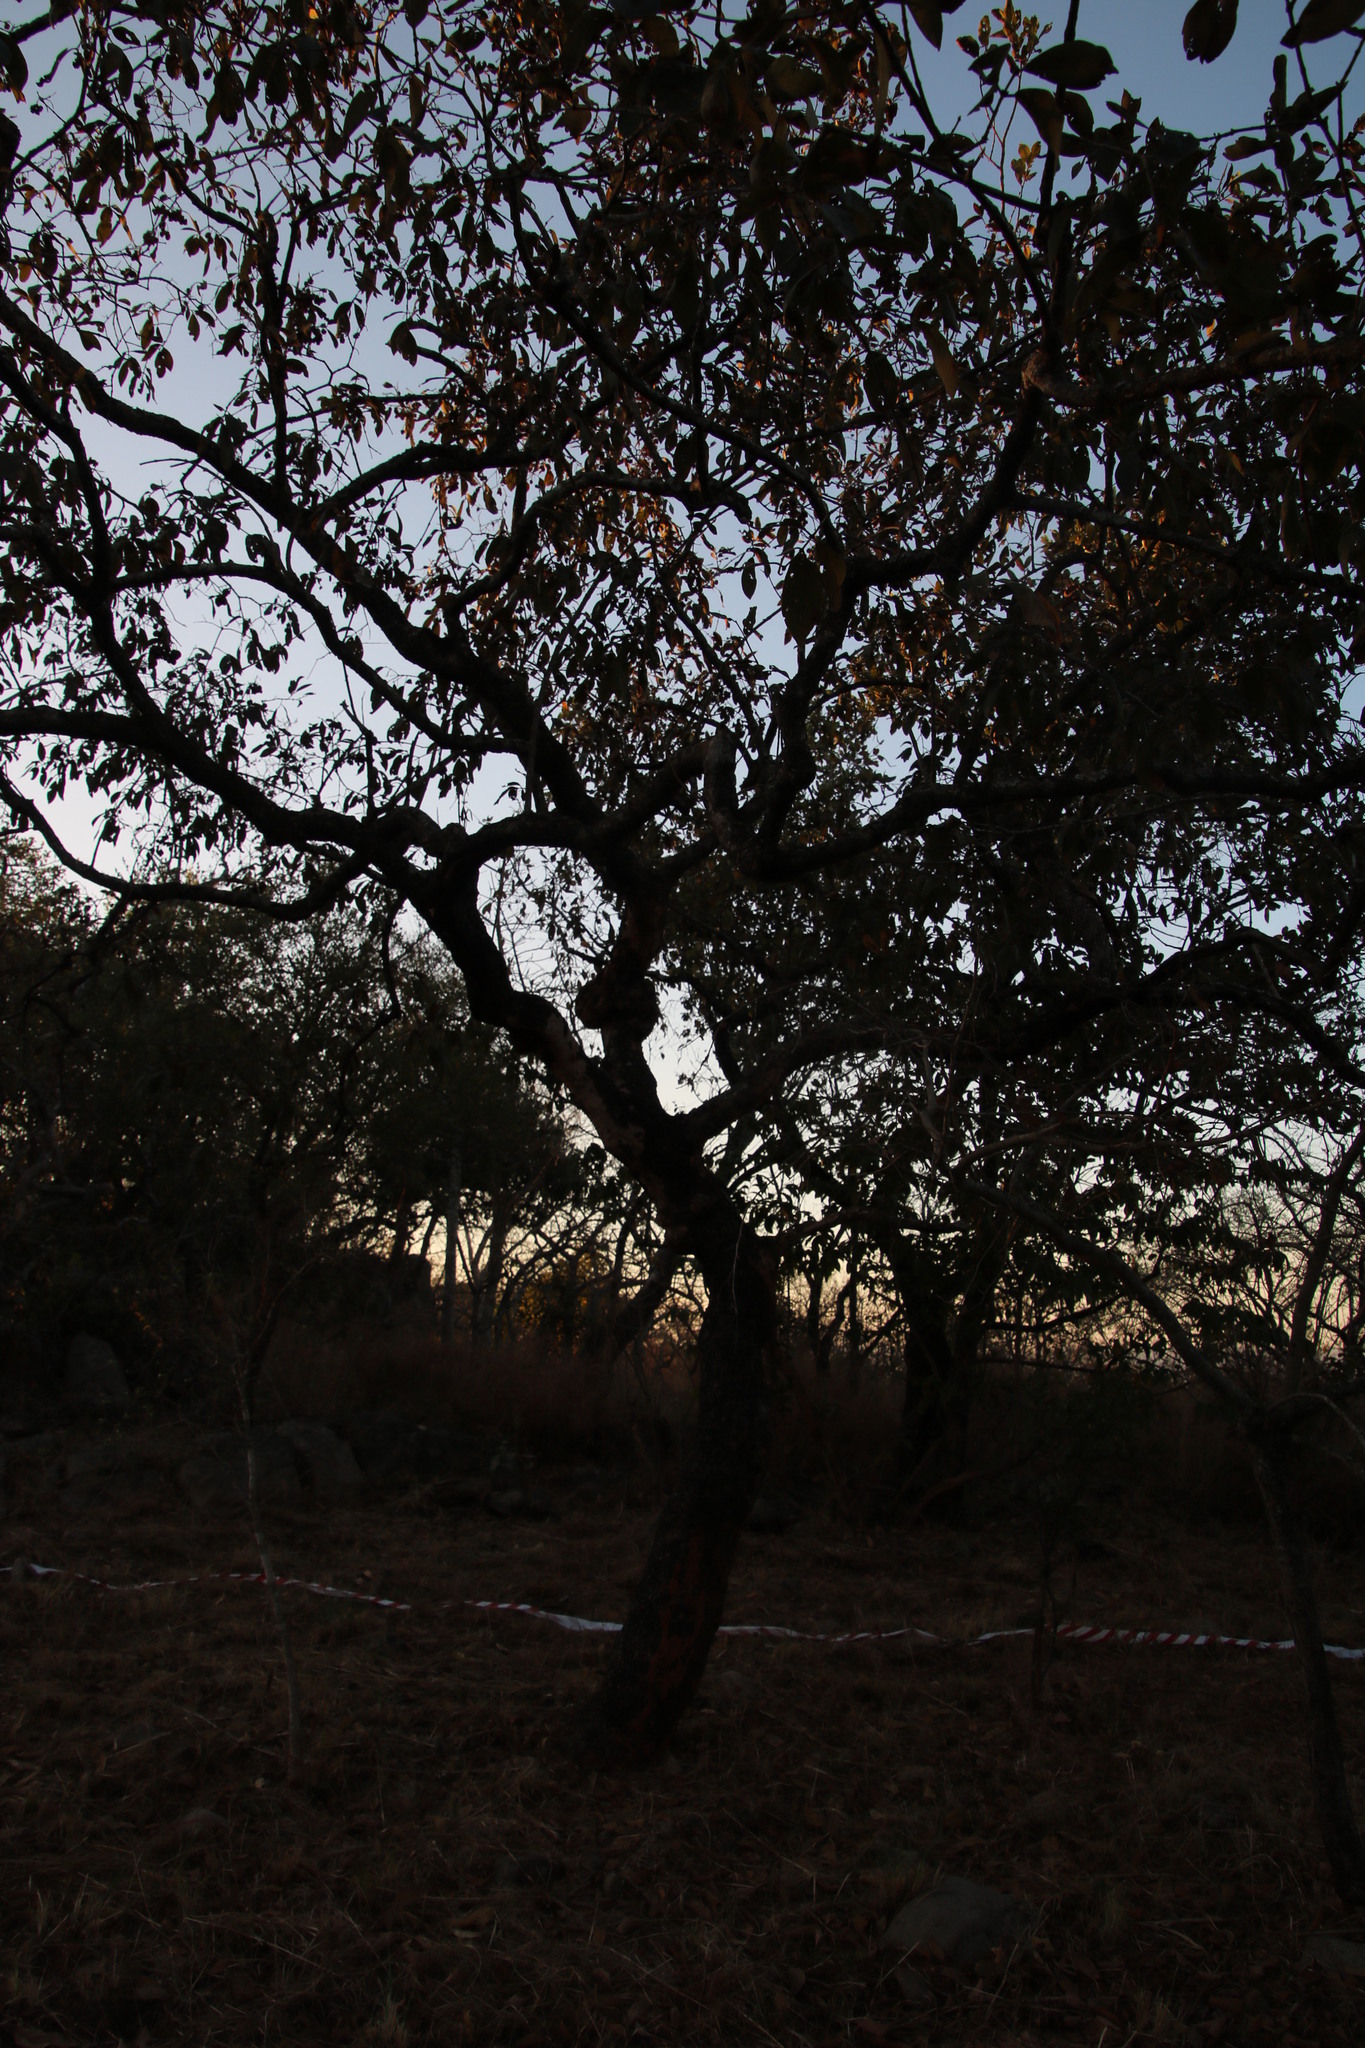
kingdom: Plantae
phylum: Tracheophyta
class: Magnoliopsida
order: Myrtales
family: Combretaceae
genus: Combretum
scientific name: Combretum collinum
